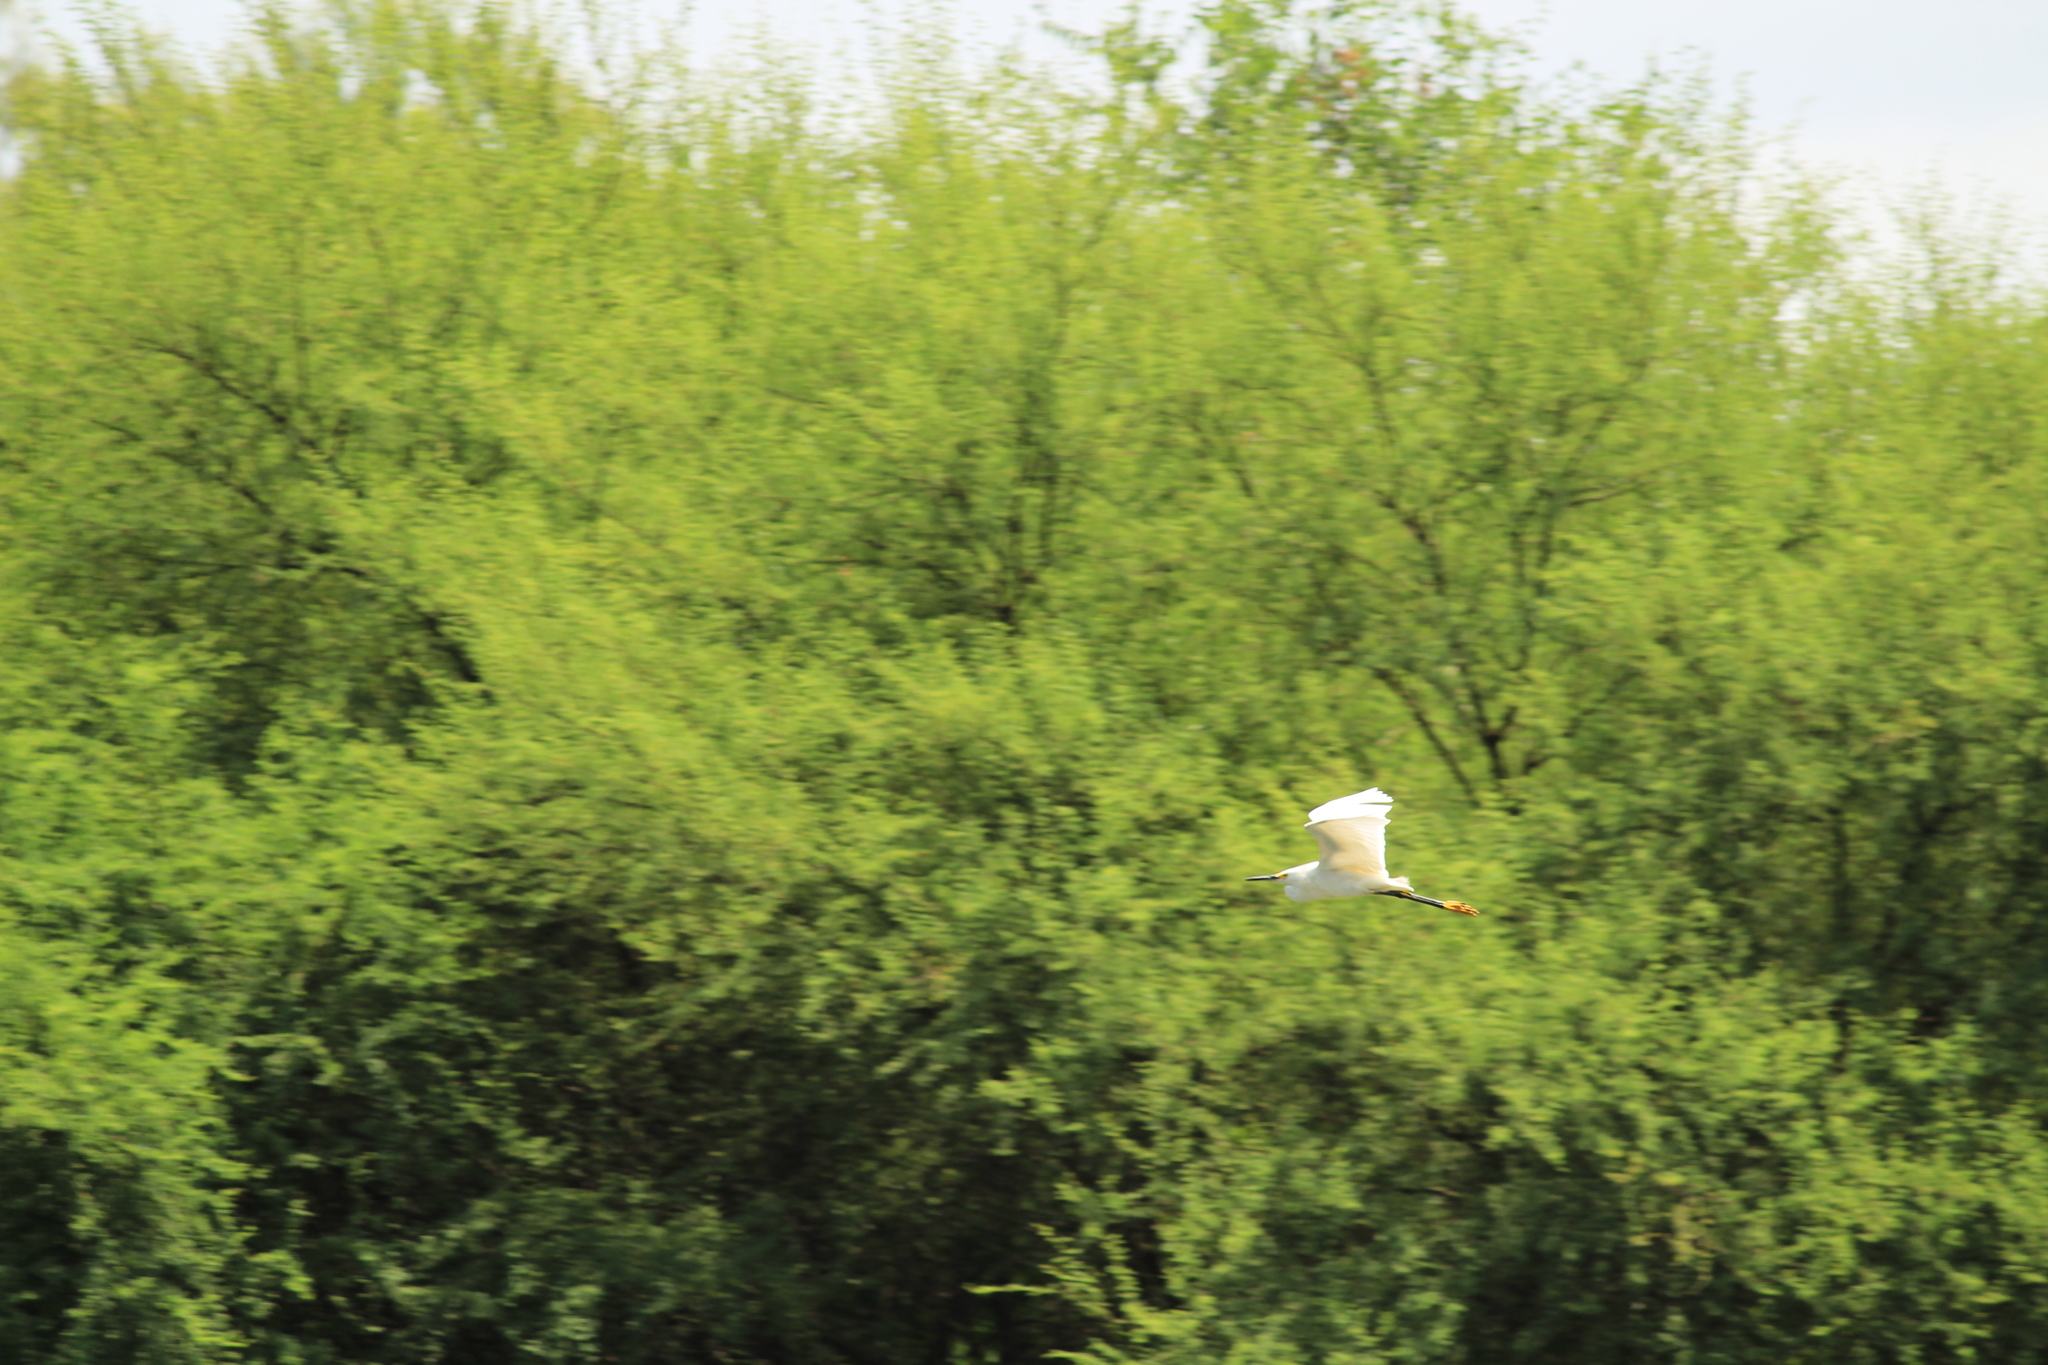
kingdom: Animalia
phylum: Chordata
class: Aves
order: Pelecaniformes
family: Ardeidae
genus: Egretta
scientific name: Egretta thula
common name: Snowy egret
